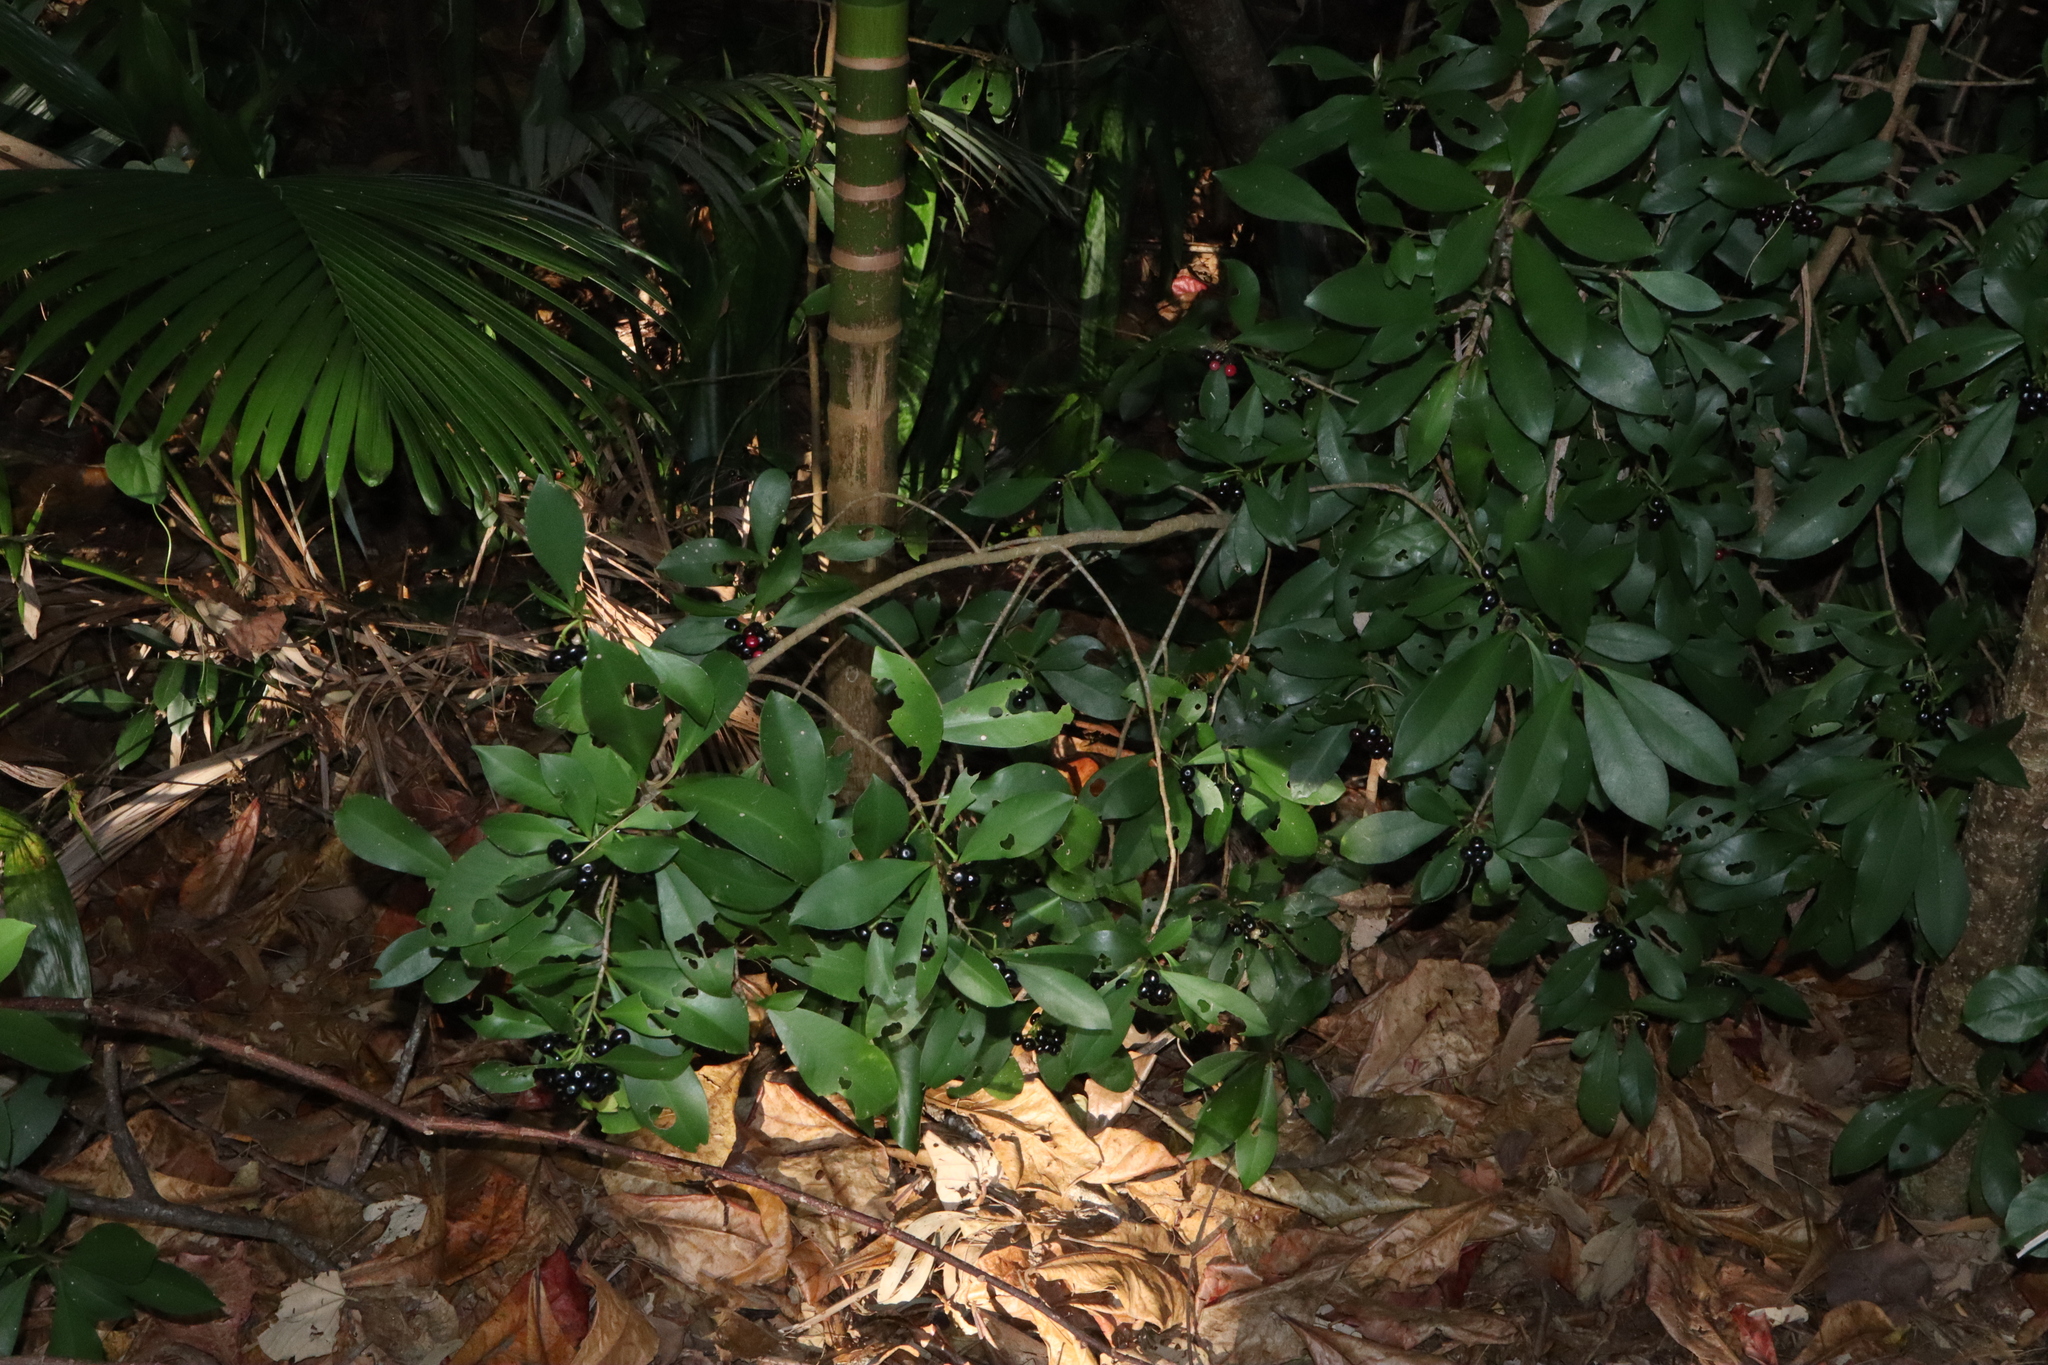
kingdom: Plantae
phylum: Tracheophyta
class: Magnoliopsida
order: Ericales
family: Primulaceae
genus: Ardisia
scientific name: Ardisia elliptica
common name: Shoebutton
